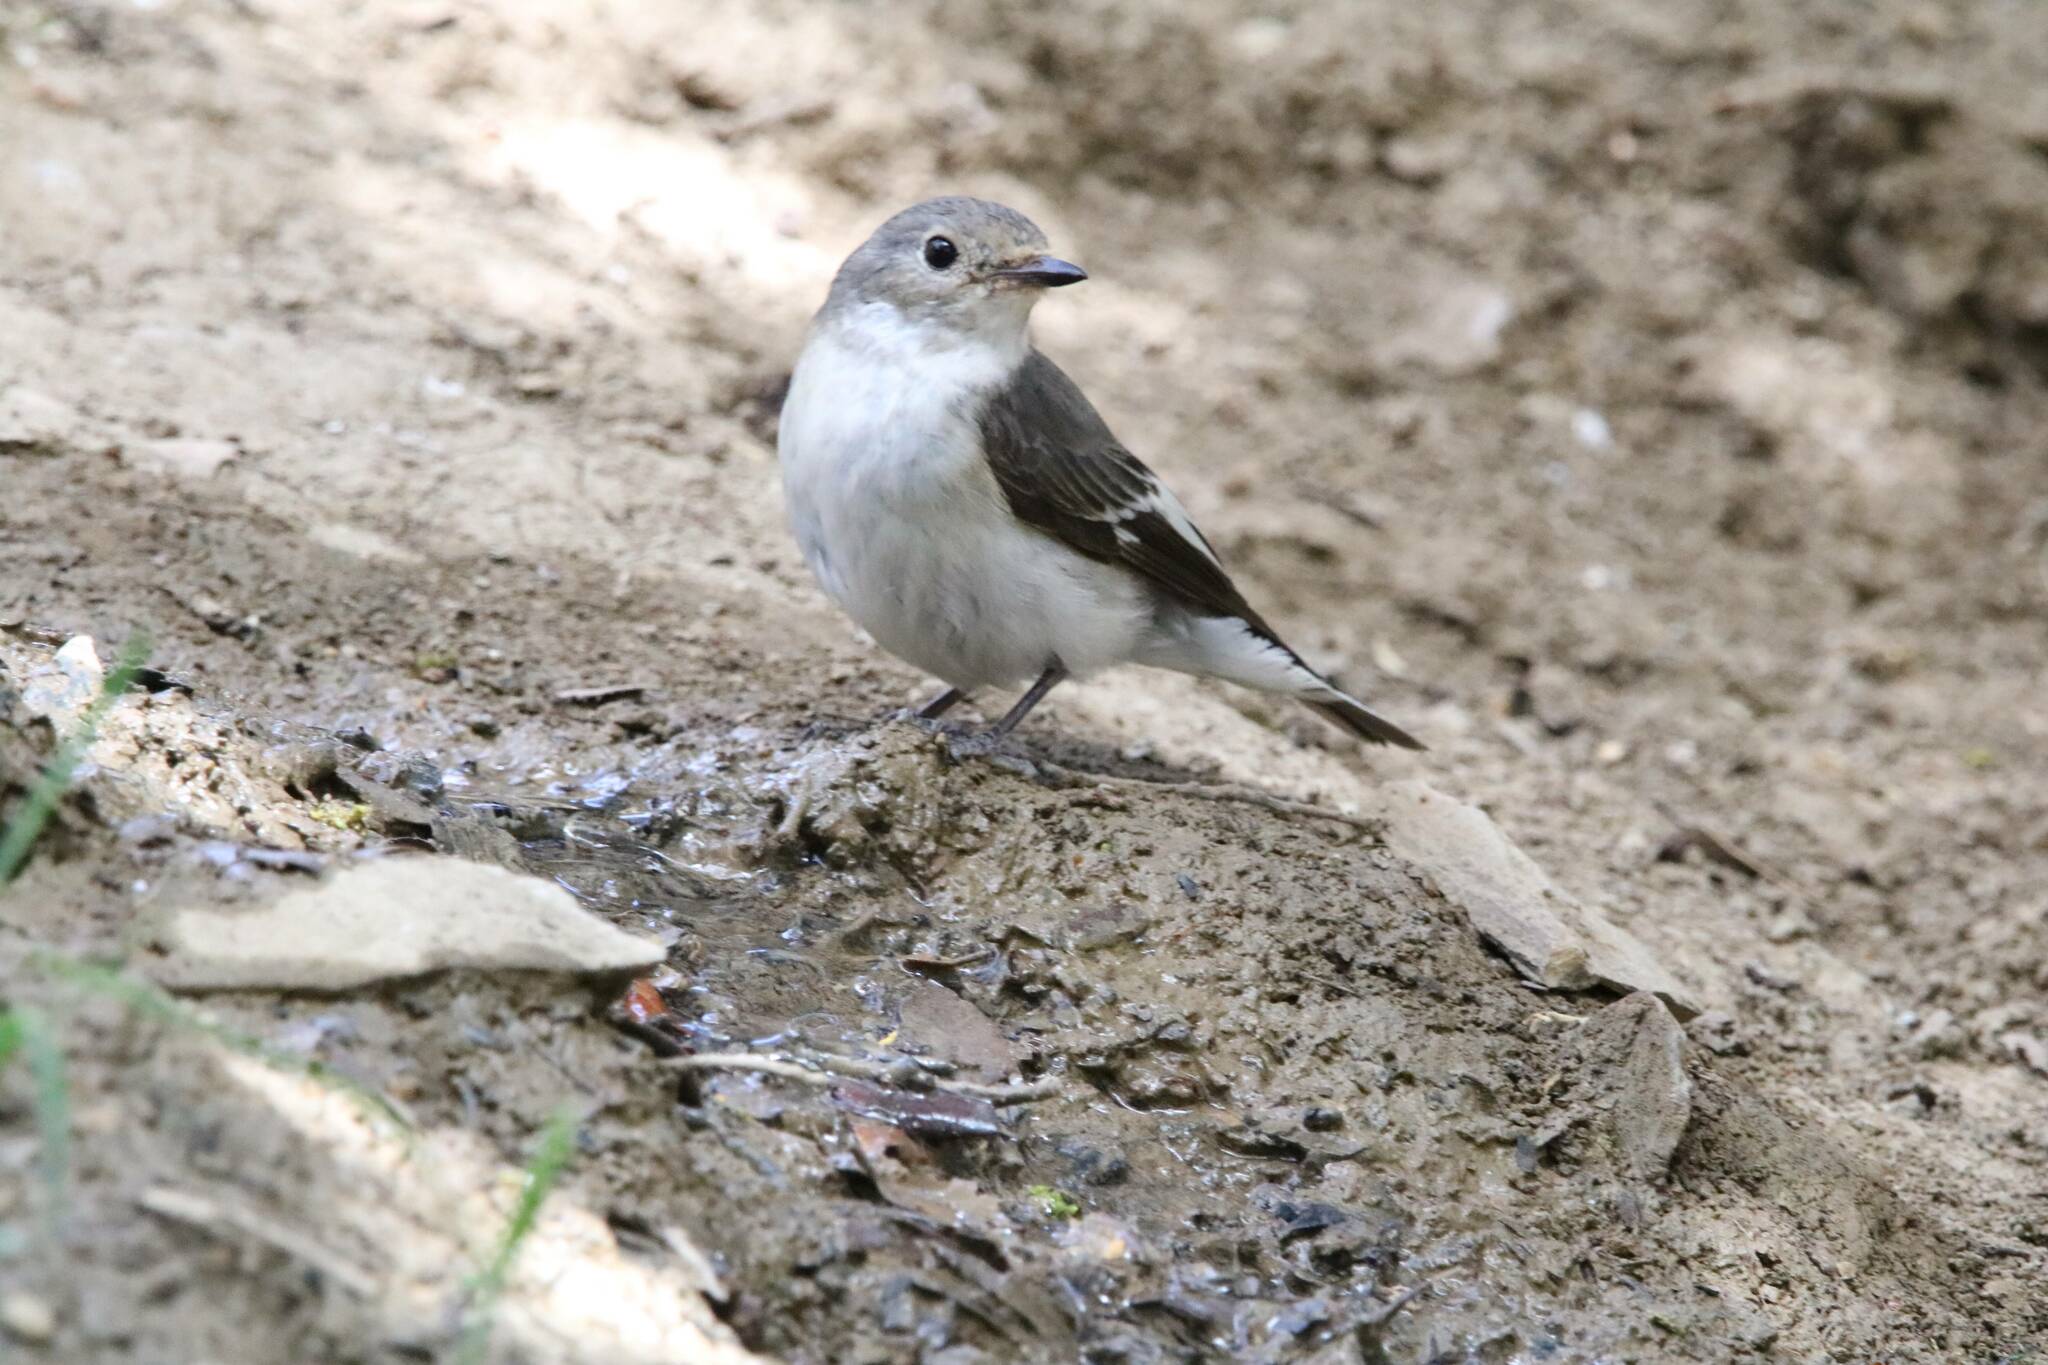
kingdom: Animalia
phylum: Chordata
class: Aves
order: Passeriformes
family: Muscicapidae
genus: Ficedula
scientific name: Ficedula speculigera
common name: Atlas pied flycatcher
